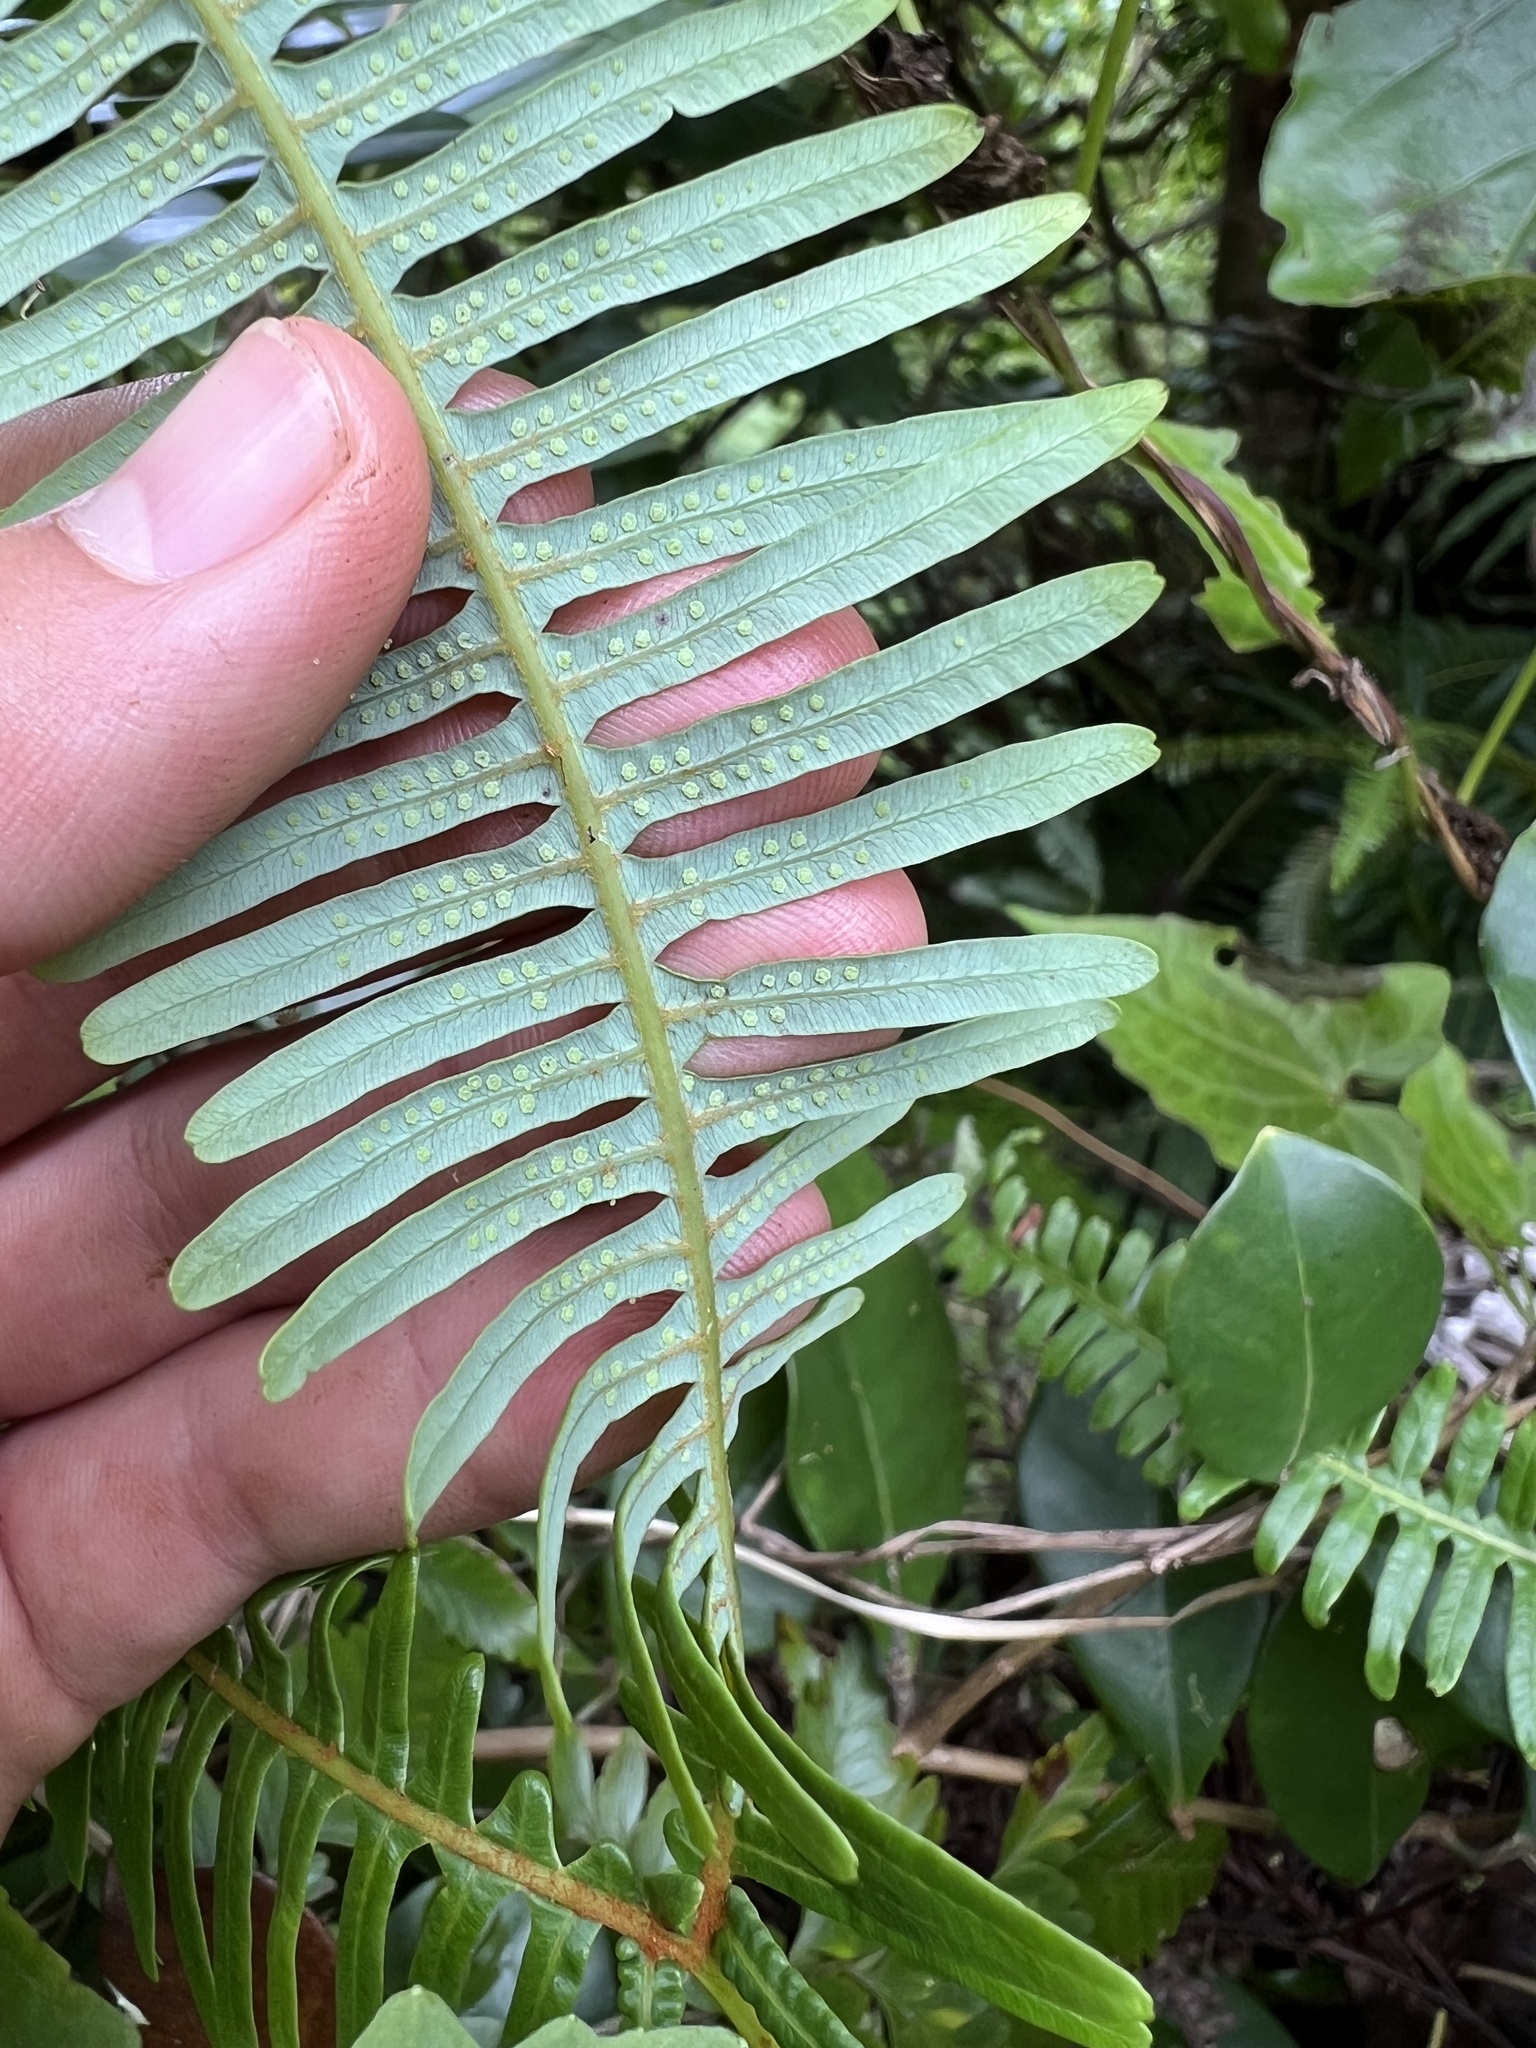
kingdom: Plantae
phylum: Tracheophyta
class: Polypodiopsida
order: Gleicheniales
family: Gleicheniaceae
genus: Dicranopteris
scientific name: Dicranopteris linearis
